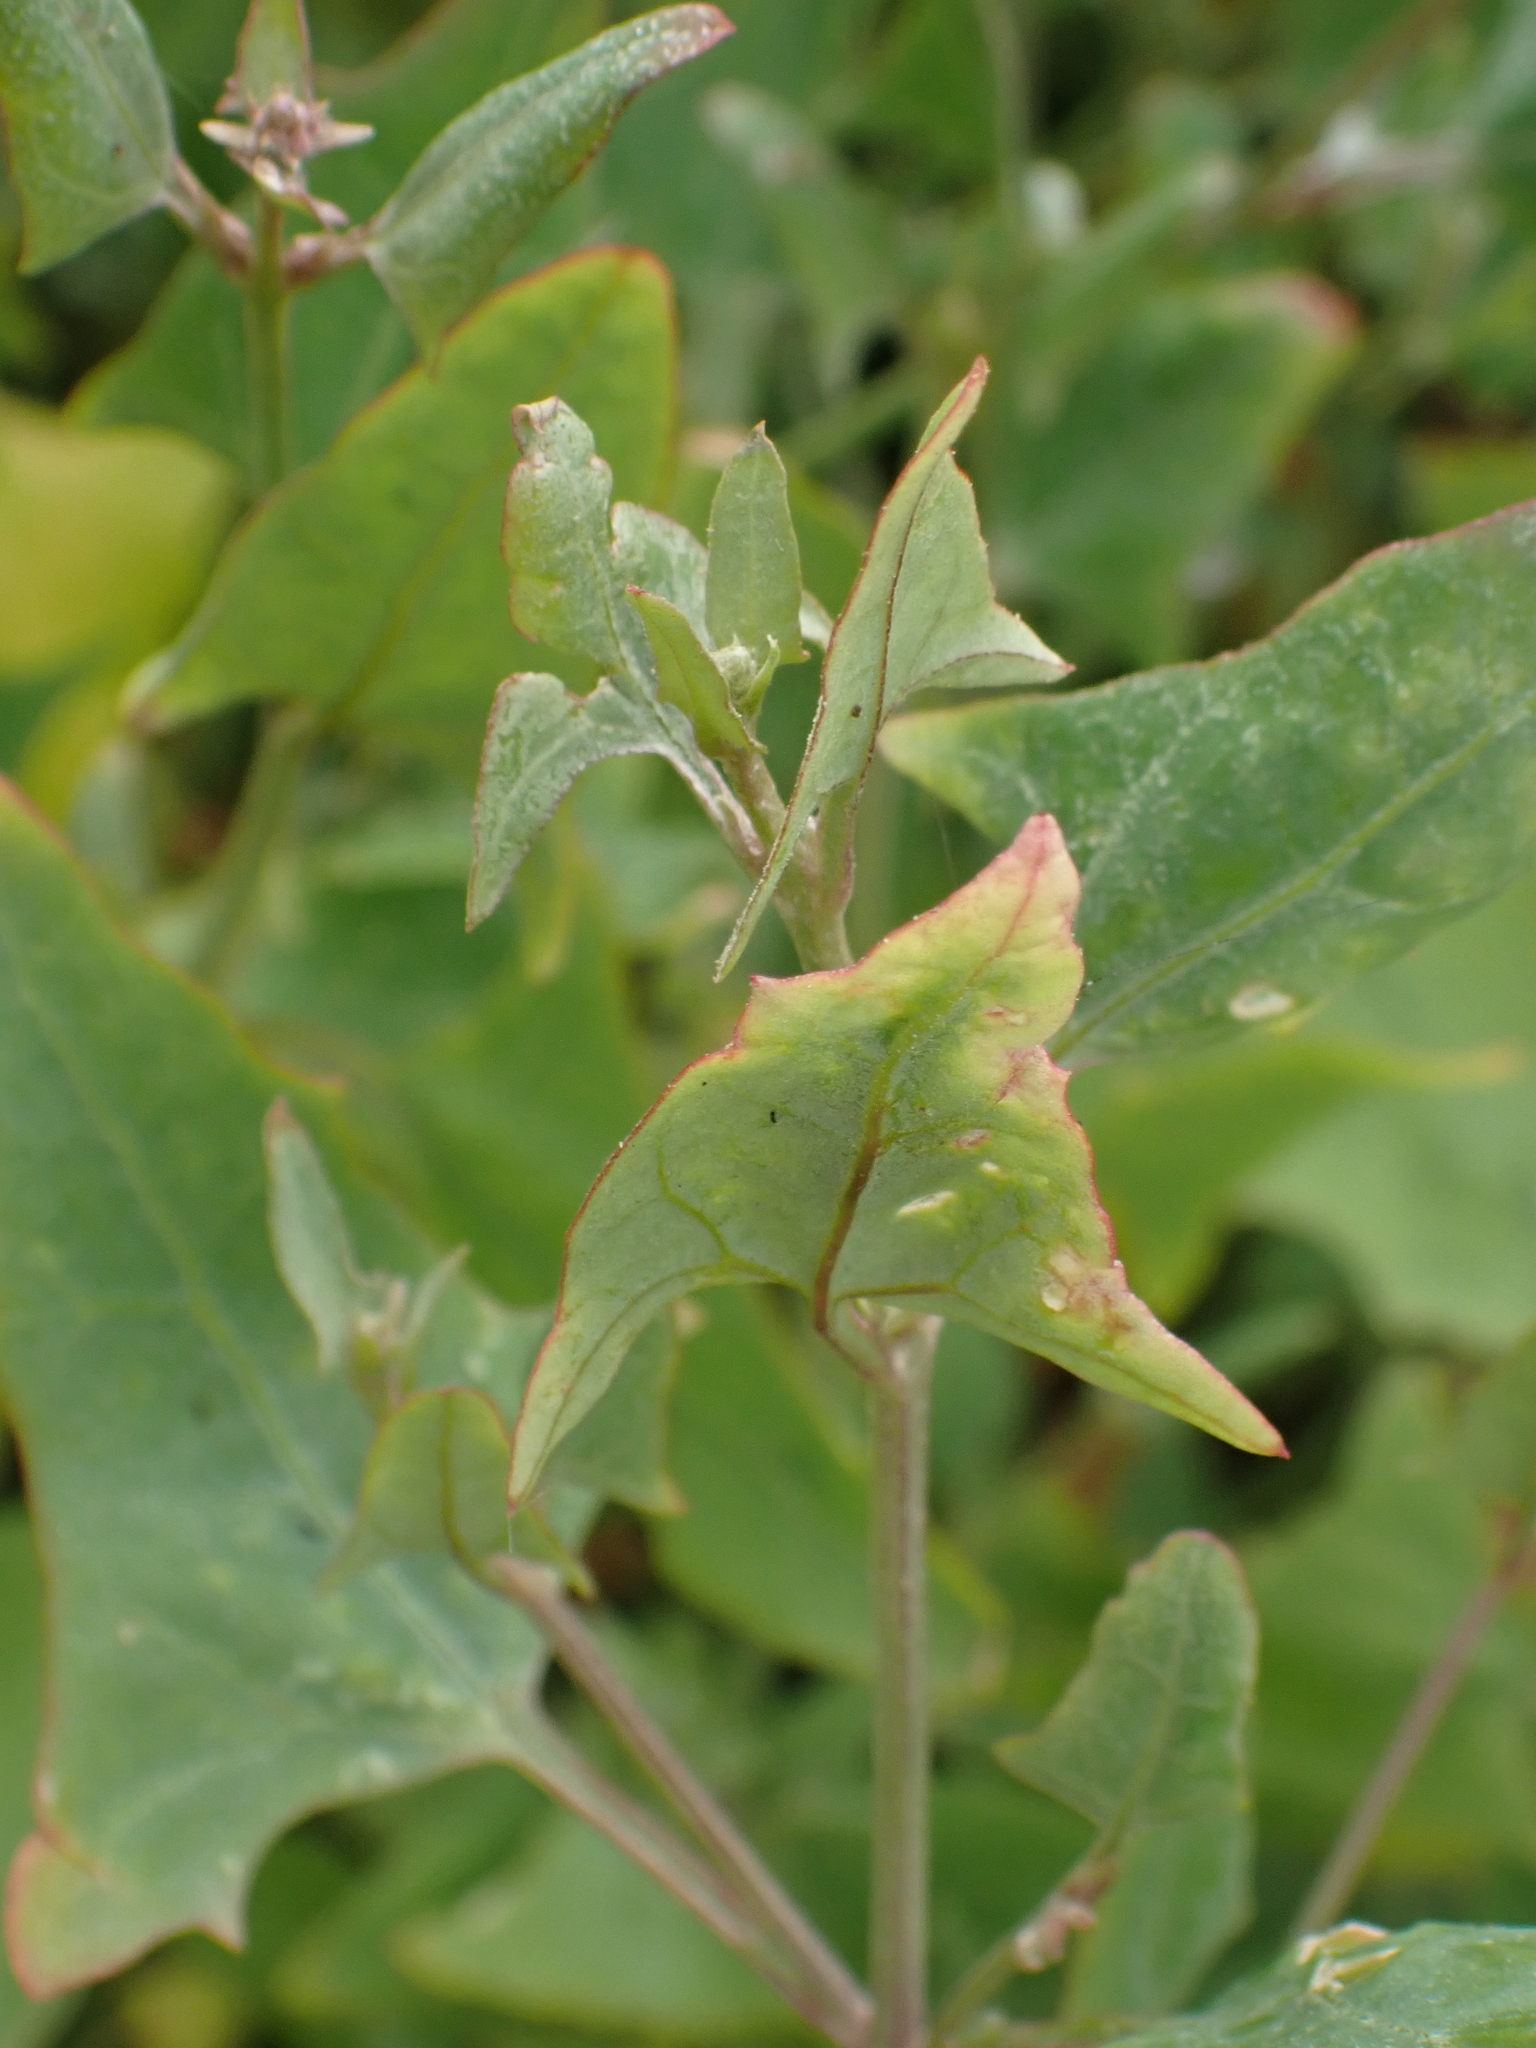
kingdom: Plantae
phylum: Tracheophyta
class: Magnoliopsida
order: Caryophyllales
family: Amaranthaceae
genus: Atriplex
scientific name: Atriplex prostrata
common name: Spear-leaved orache
